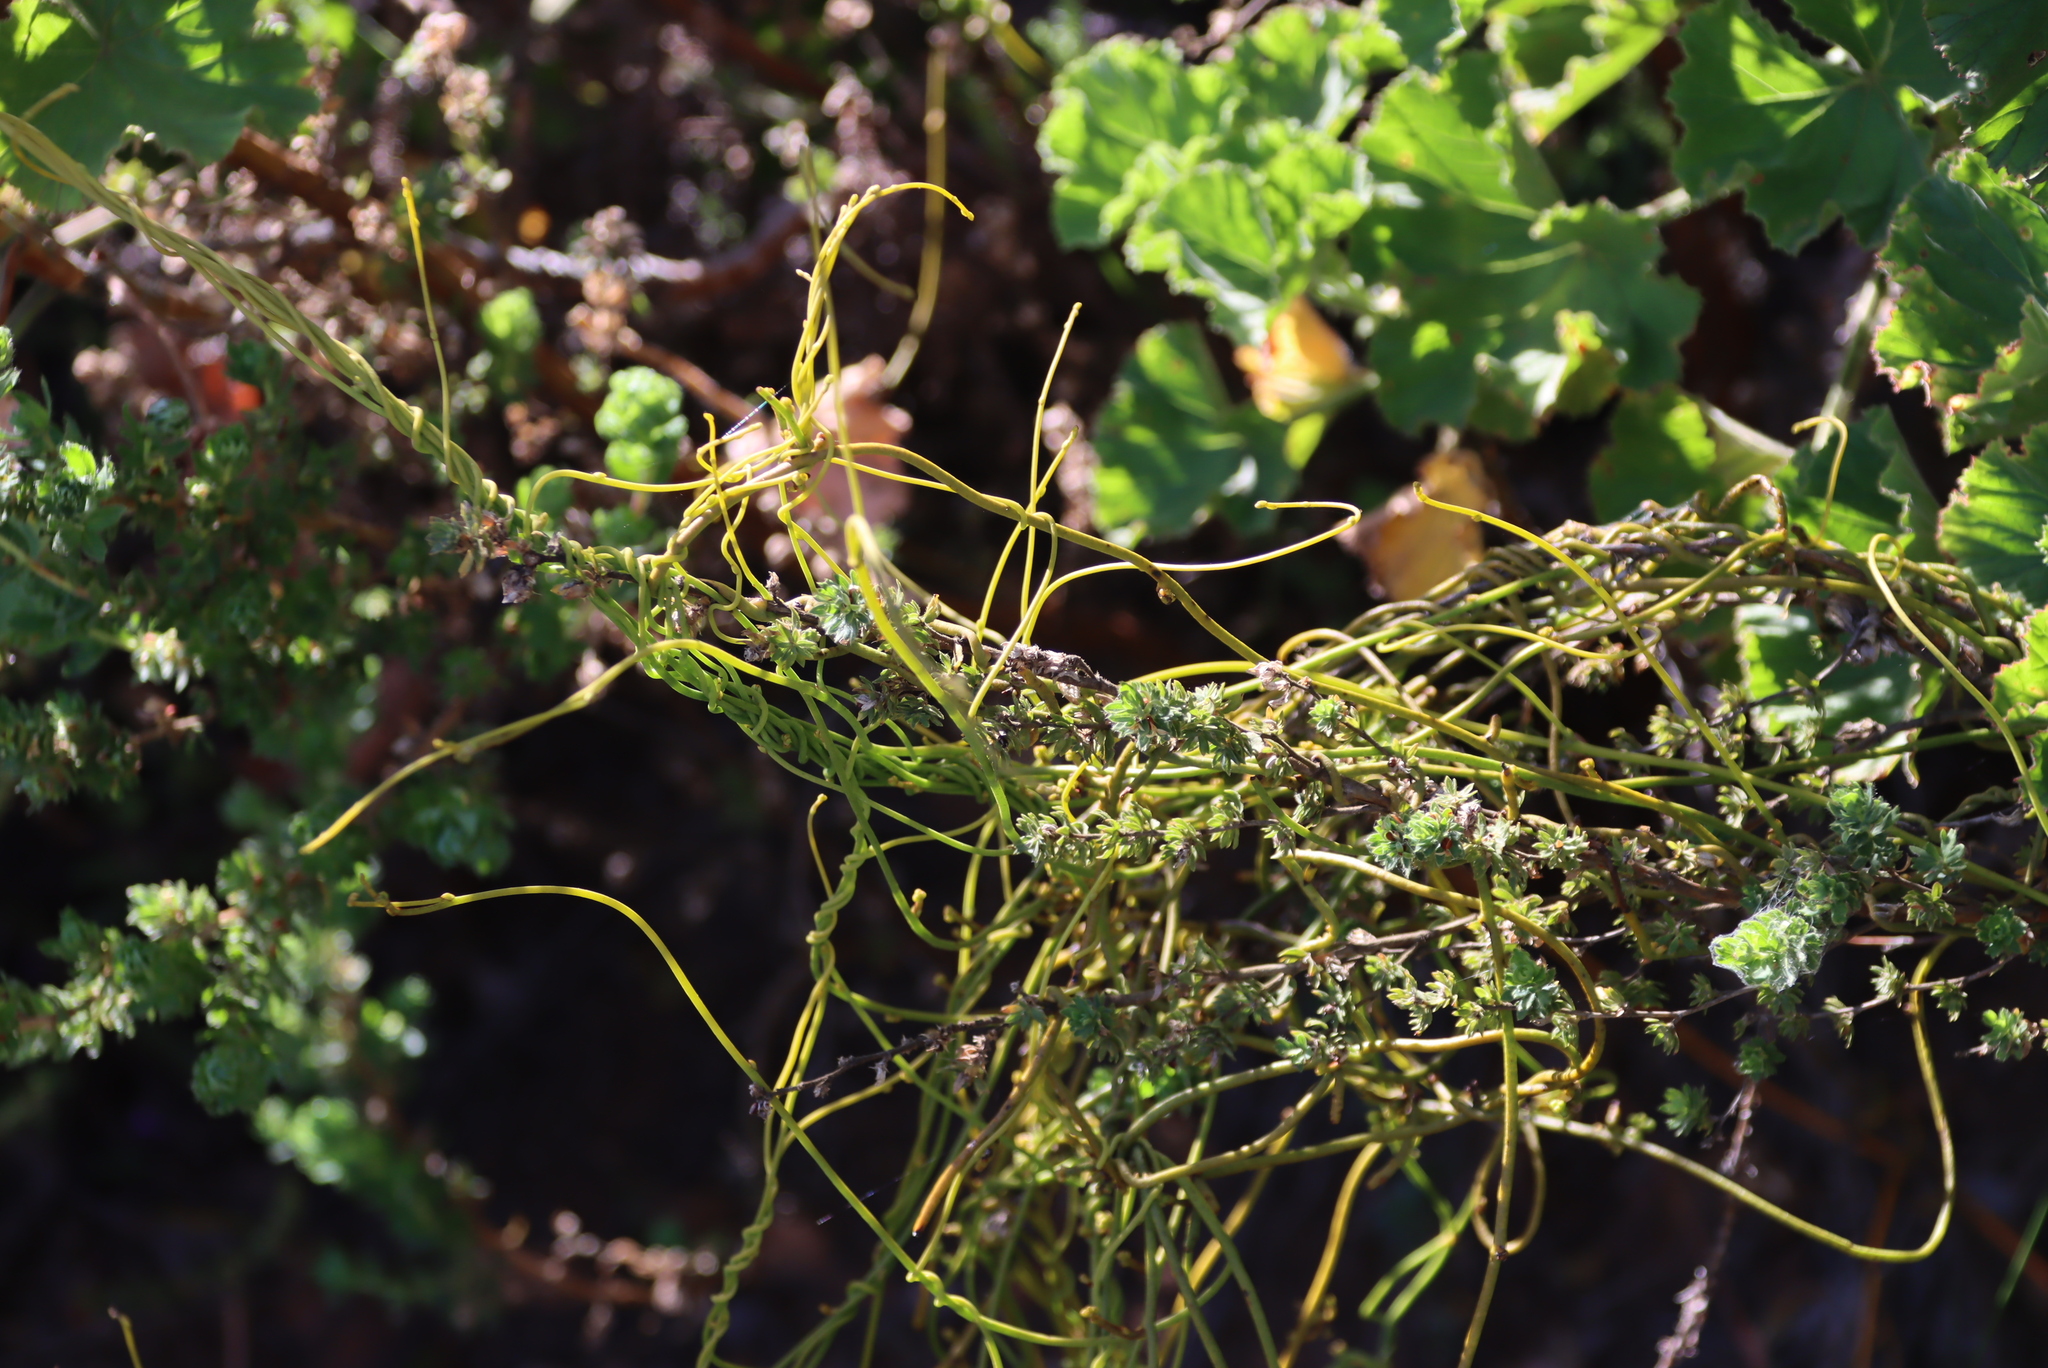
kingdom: Plantae
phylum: Tracheophyta
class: Magnoliopsida
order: Laurales
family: Lauraceae
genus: Cassytha
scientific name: Cassytha ciliolata
